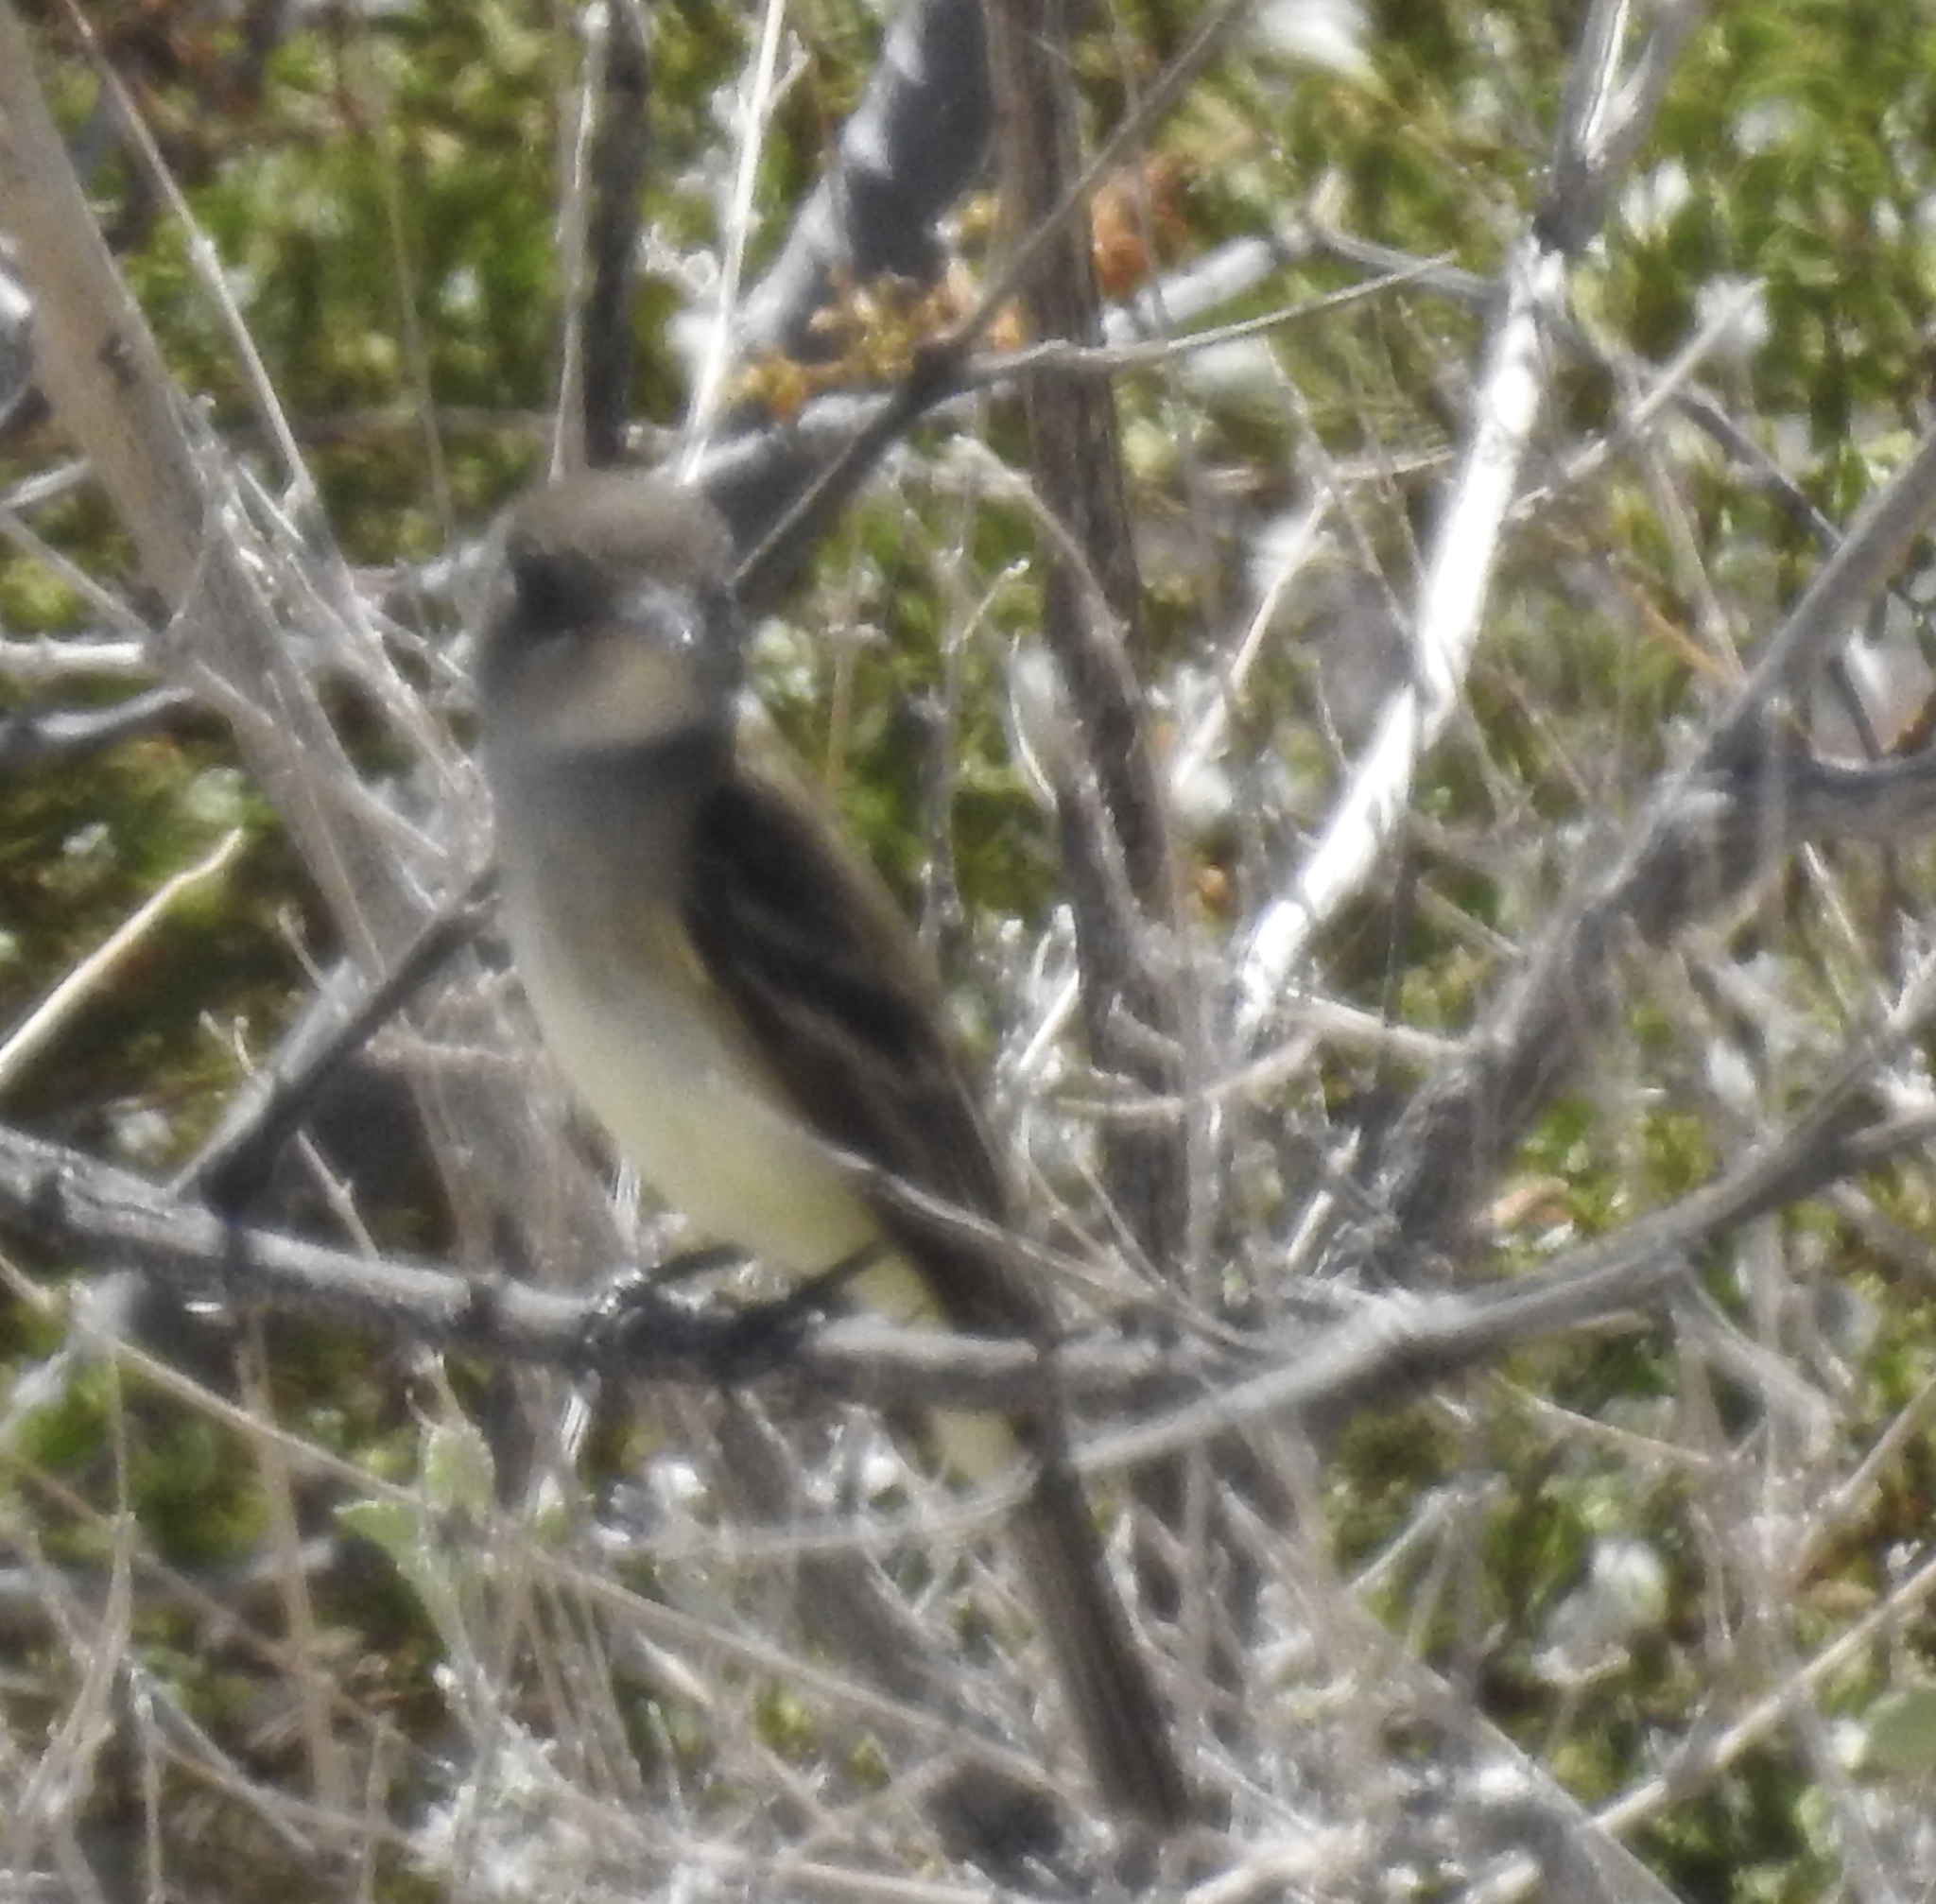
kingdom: Animalia
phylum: Chordata
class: Aves
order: Passeriformes
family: Tyrannidae
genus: Empidonax
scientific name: Empidonax traillii
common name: Willow flycatcher
